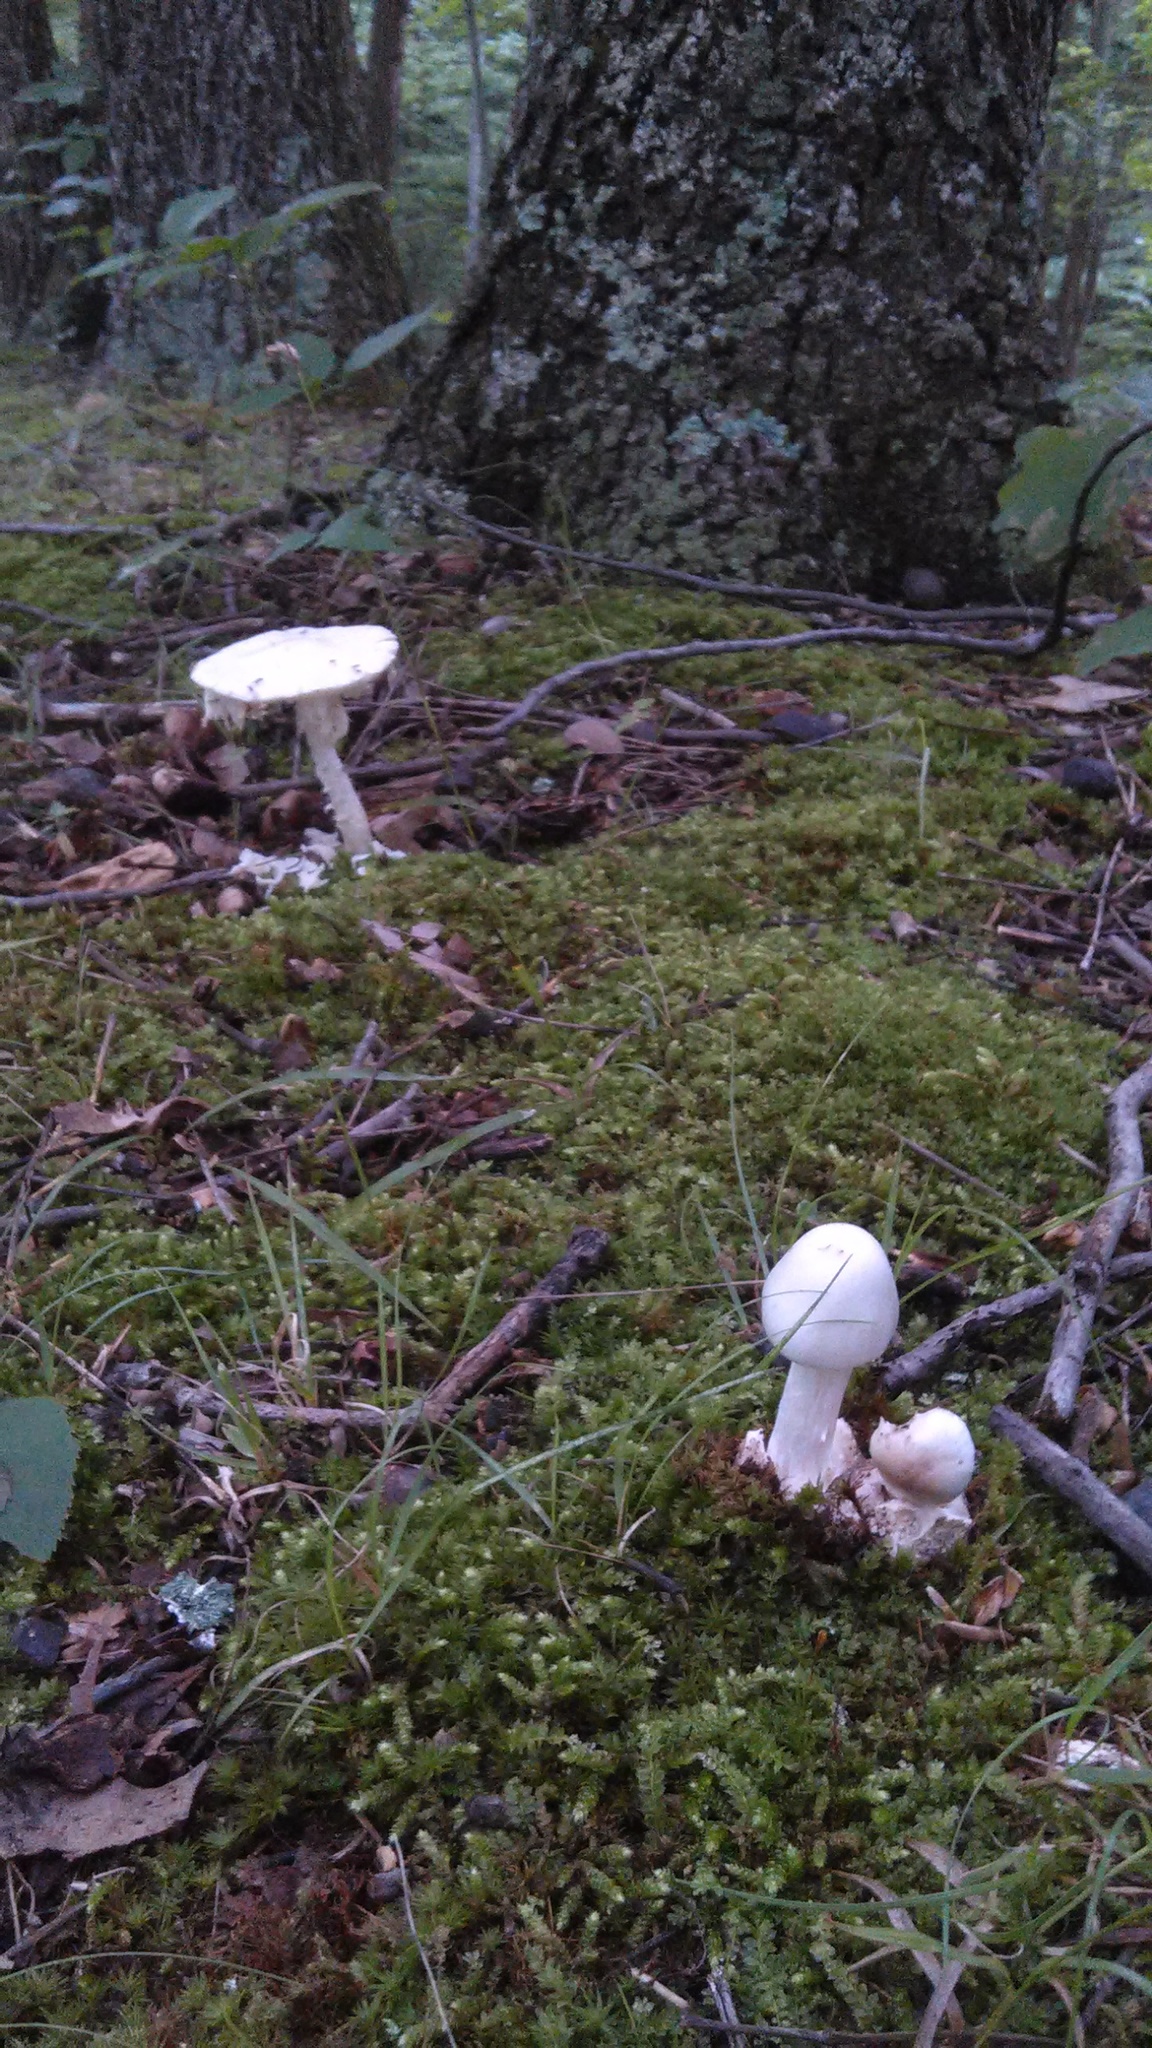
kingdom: Fungi
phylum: Basidiomycota
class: Agaricomycetes
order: Agaricales
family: Amanitaceae
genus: Amanita
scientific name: Amanita bisporigera
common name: Eastern north american destroying angel
